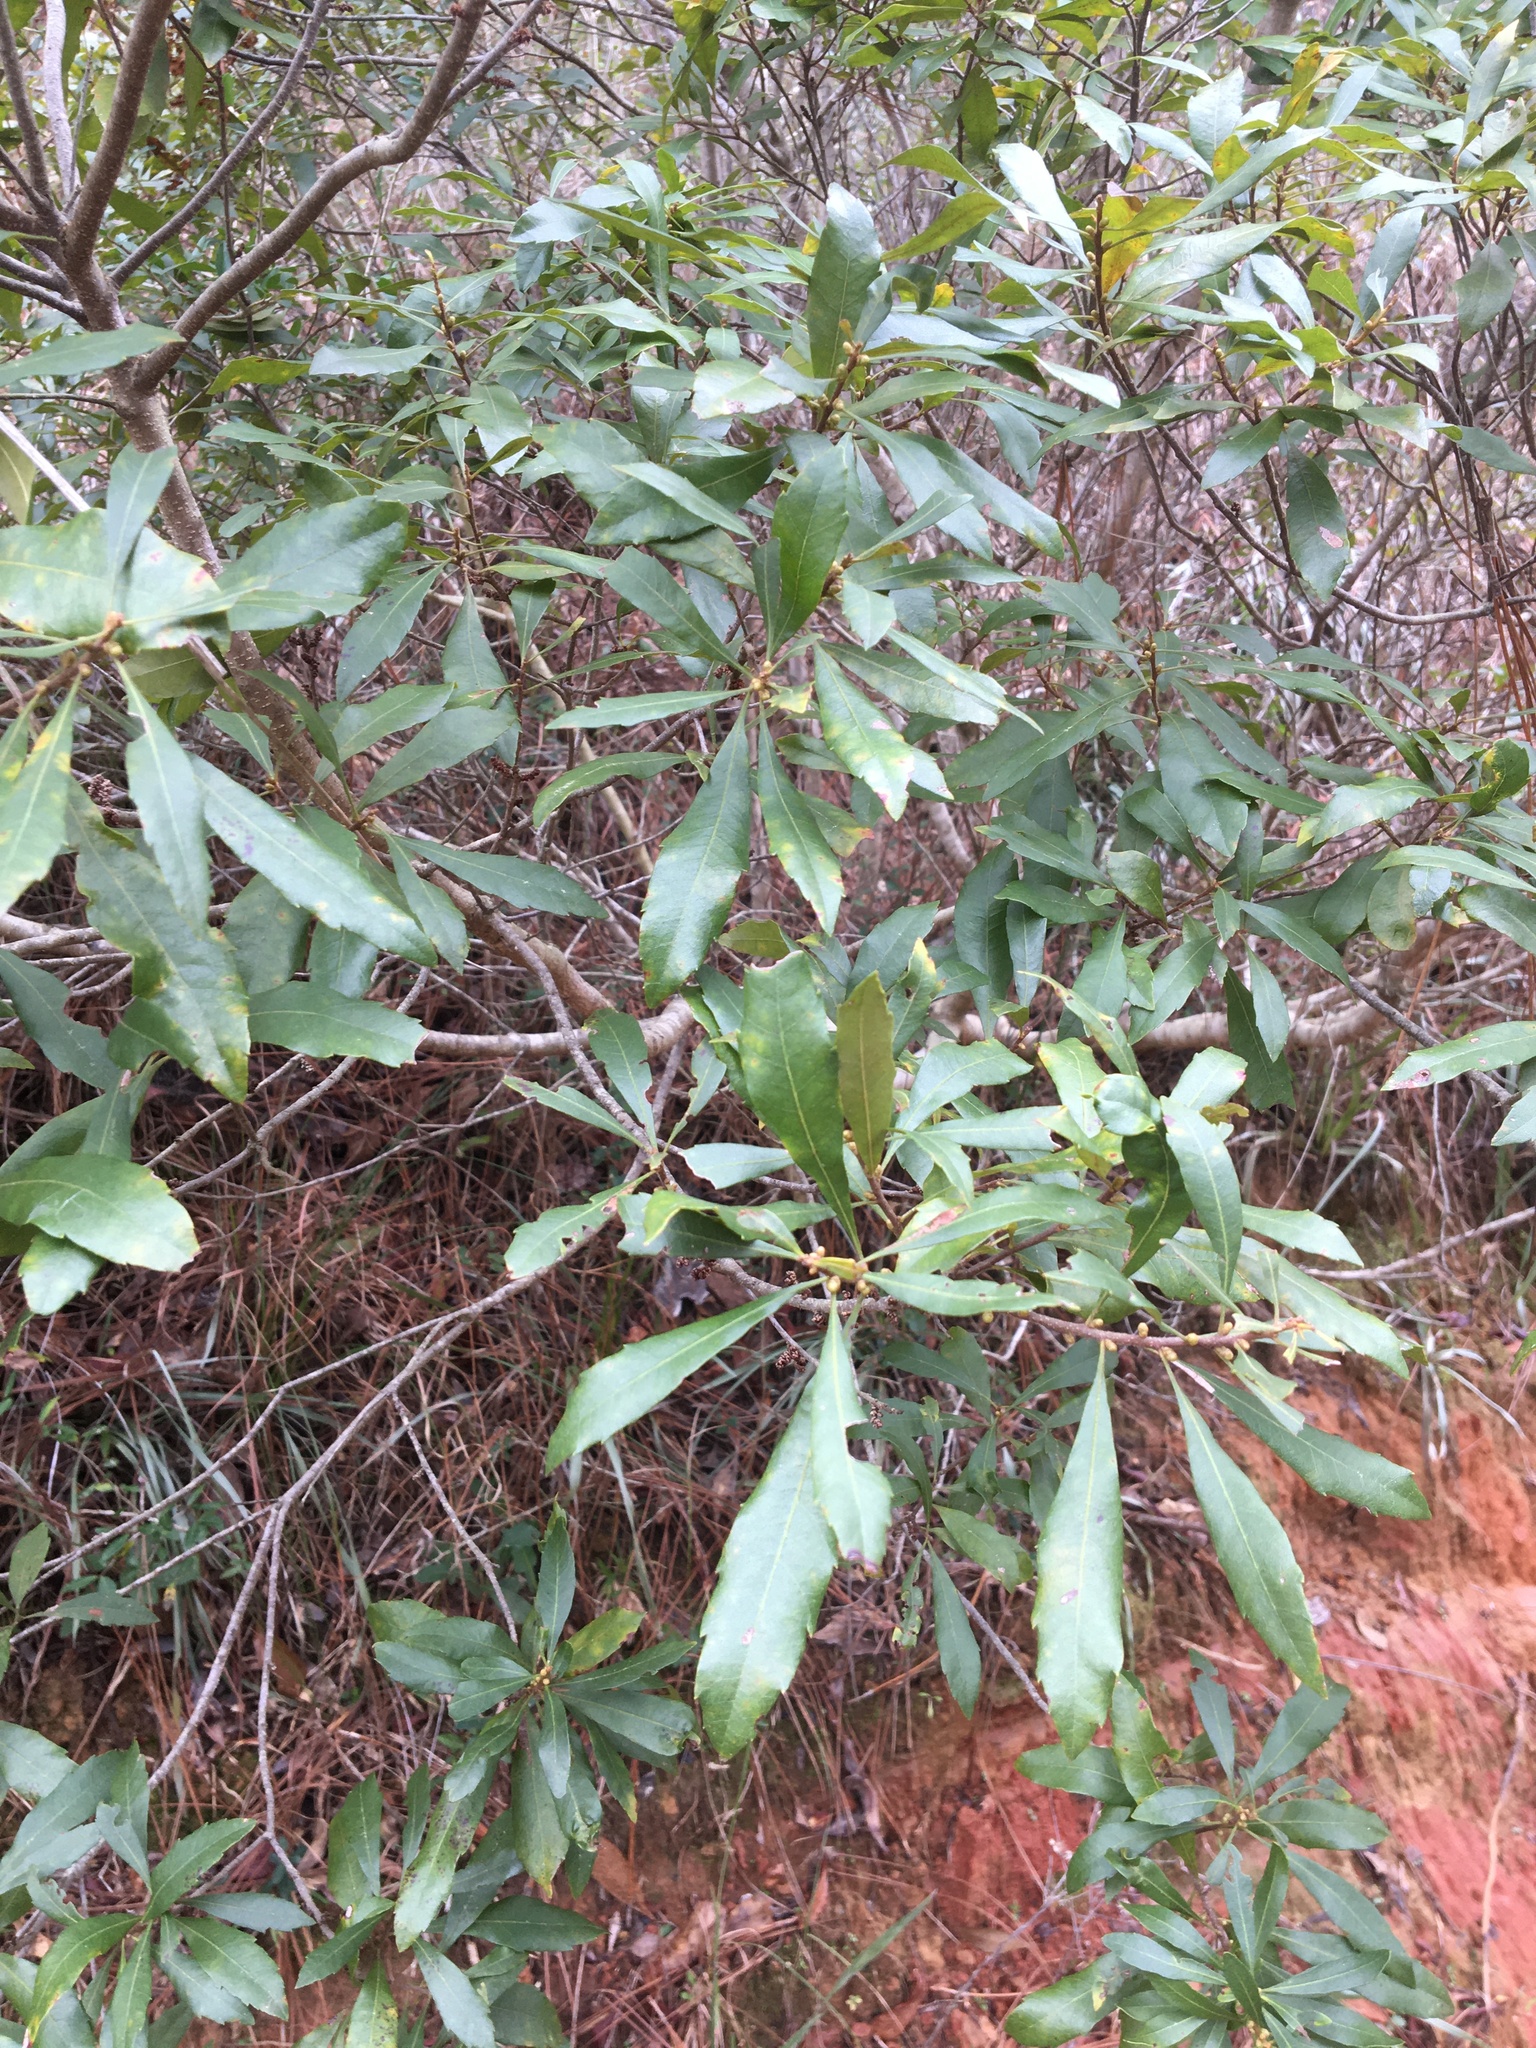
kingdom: Plantae
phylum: Tracheophyta
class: Magnoliopsida
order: Fagales
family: Myricaceae
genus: Morella
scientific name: Morella cerifera
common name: Wax myrtle
